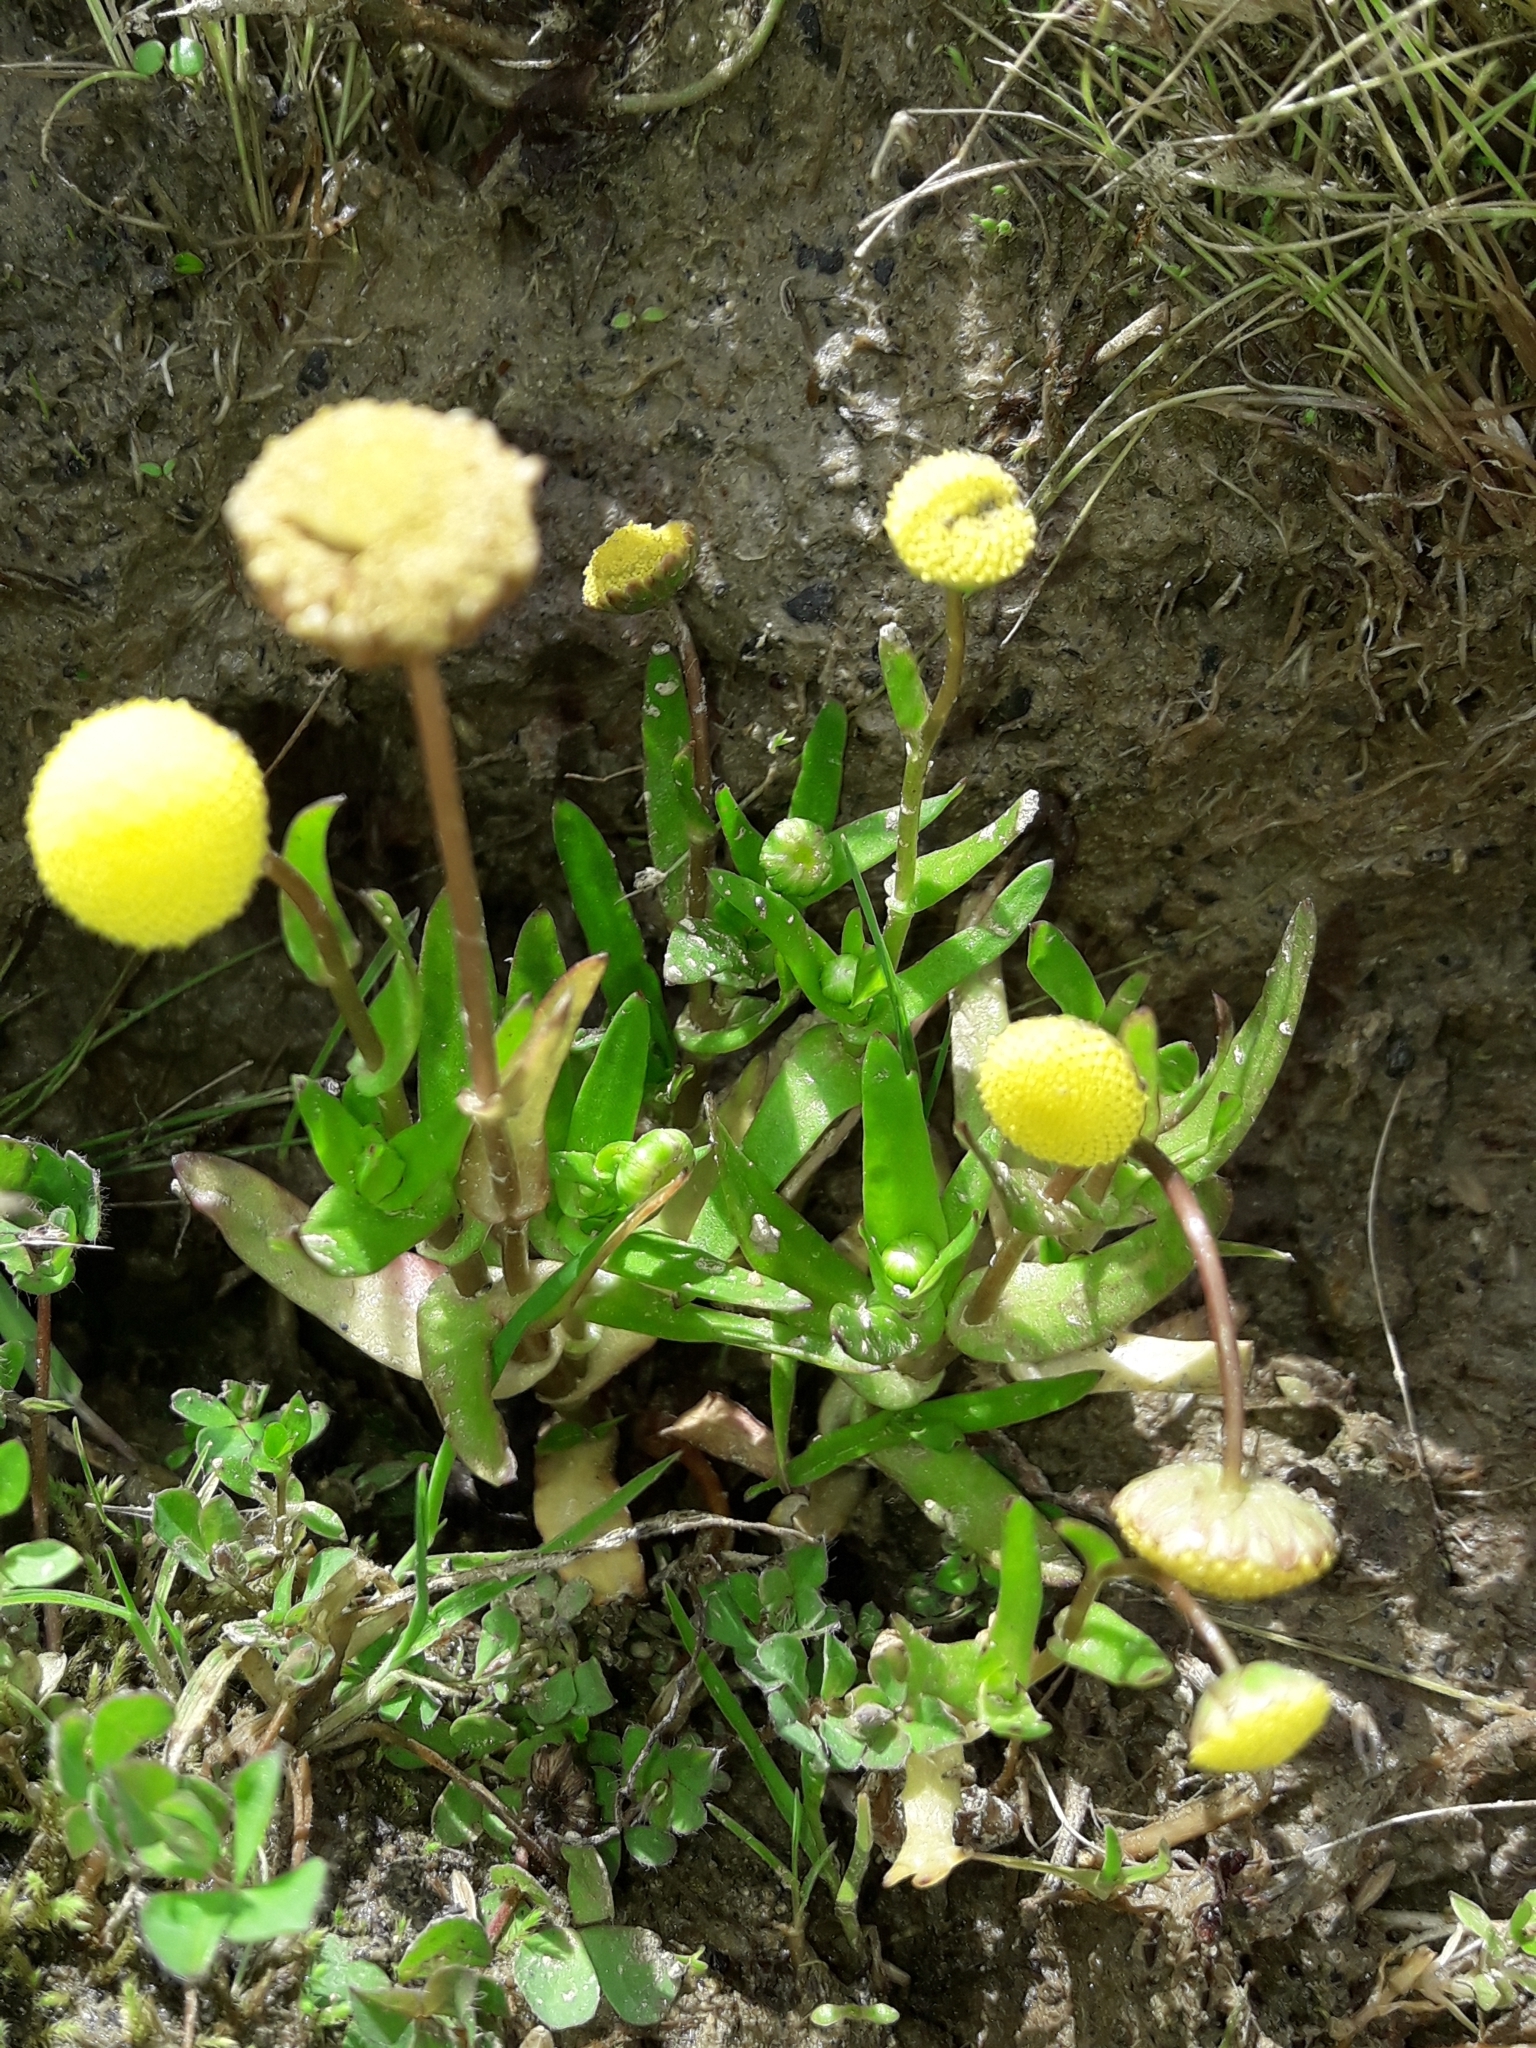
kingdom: Plantae
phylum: Tracheophyta
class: Magnoliopsida
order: Asterales
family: Asteraceae
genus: Cotula
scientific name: Cotula coronopifolia
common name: Buttonweed
